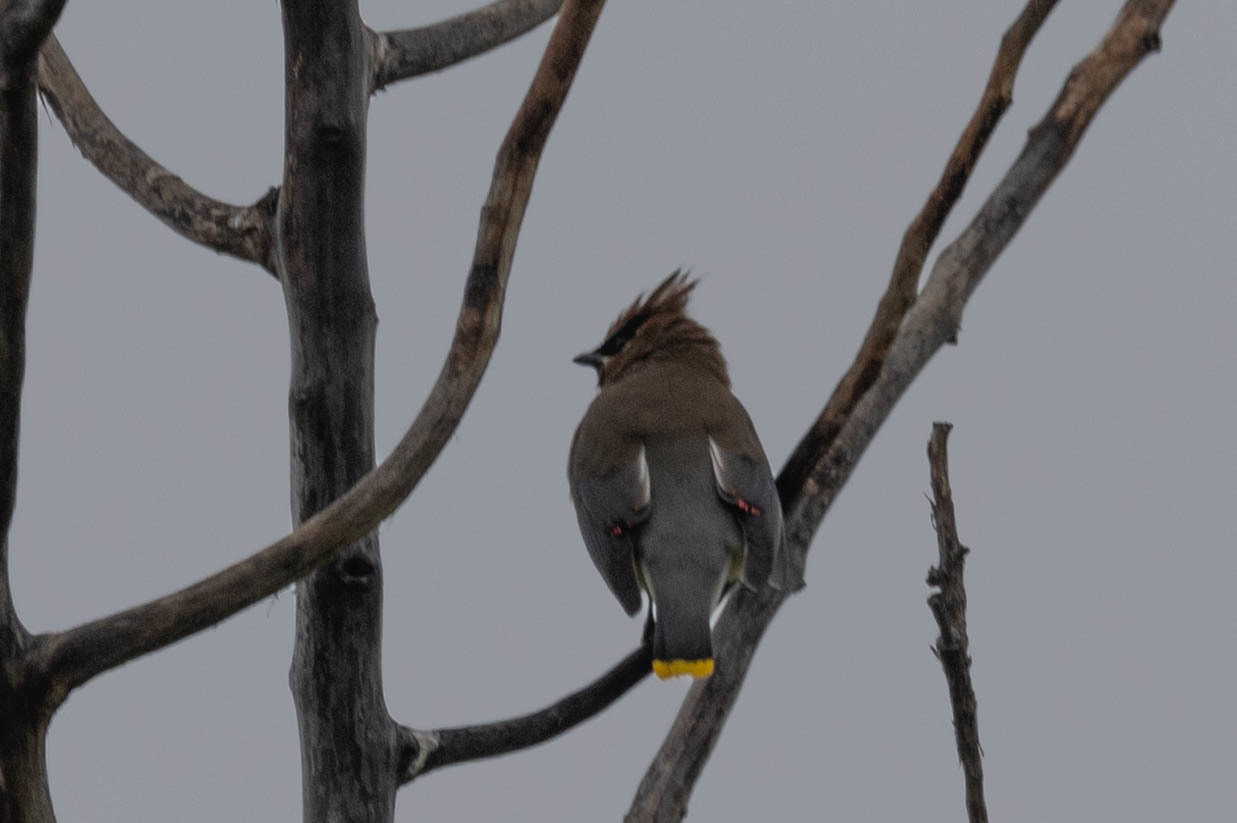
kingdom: Animalia
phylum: Chordata
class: Aves
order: Passeriformes
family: Bombycillidae
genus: Bombycilla
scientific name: Bombycilla cedrorum
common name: Cedar waxwing
